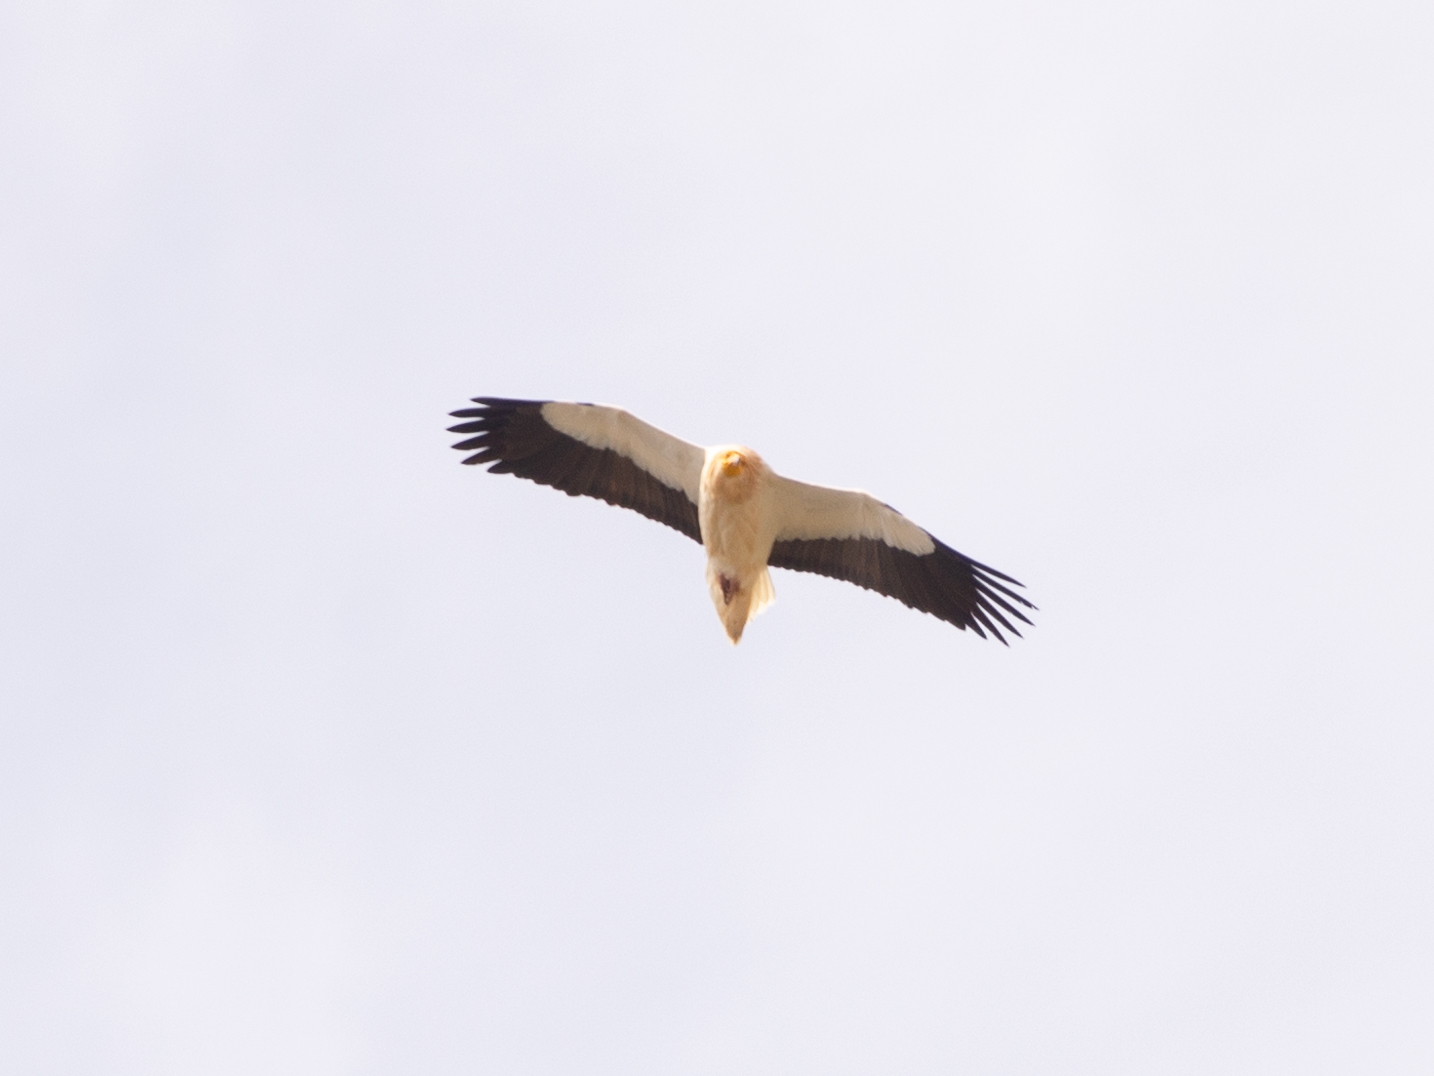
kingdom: Animalia
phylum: Chordata
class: Aves
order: Accipitriformes
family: Accipitridae
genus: Neophron
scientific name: Neophron percnopterus
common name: Egyptian vulture
